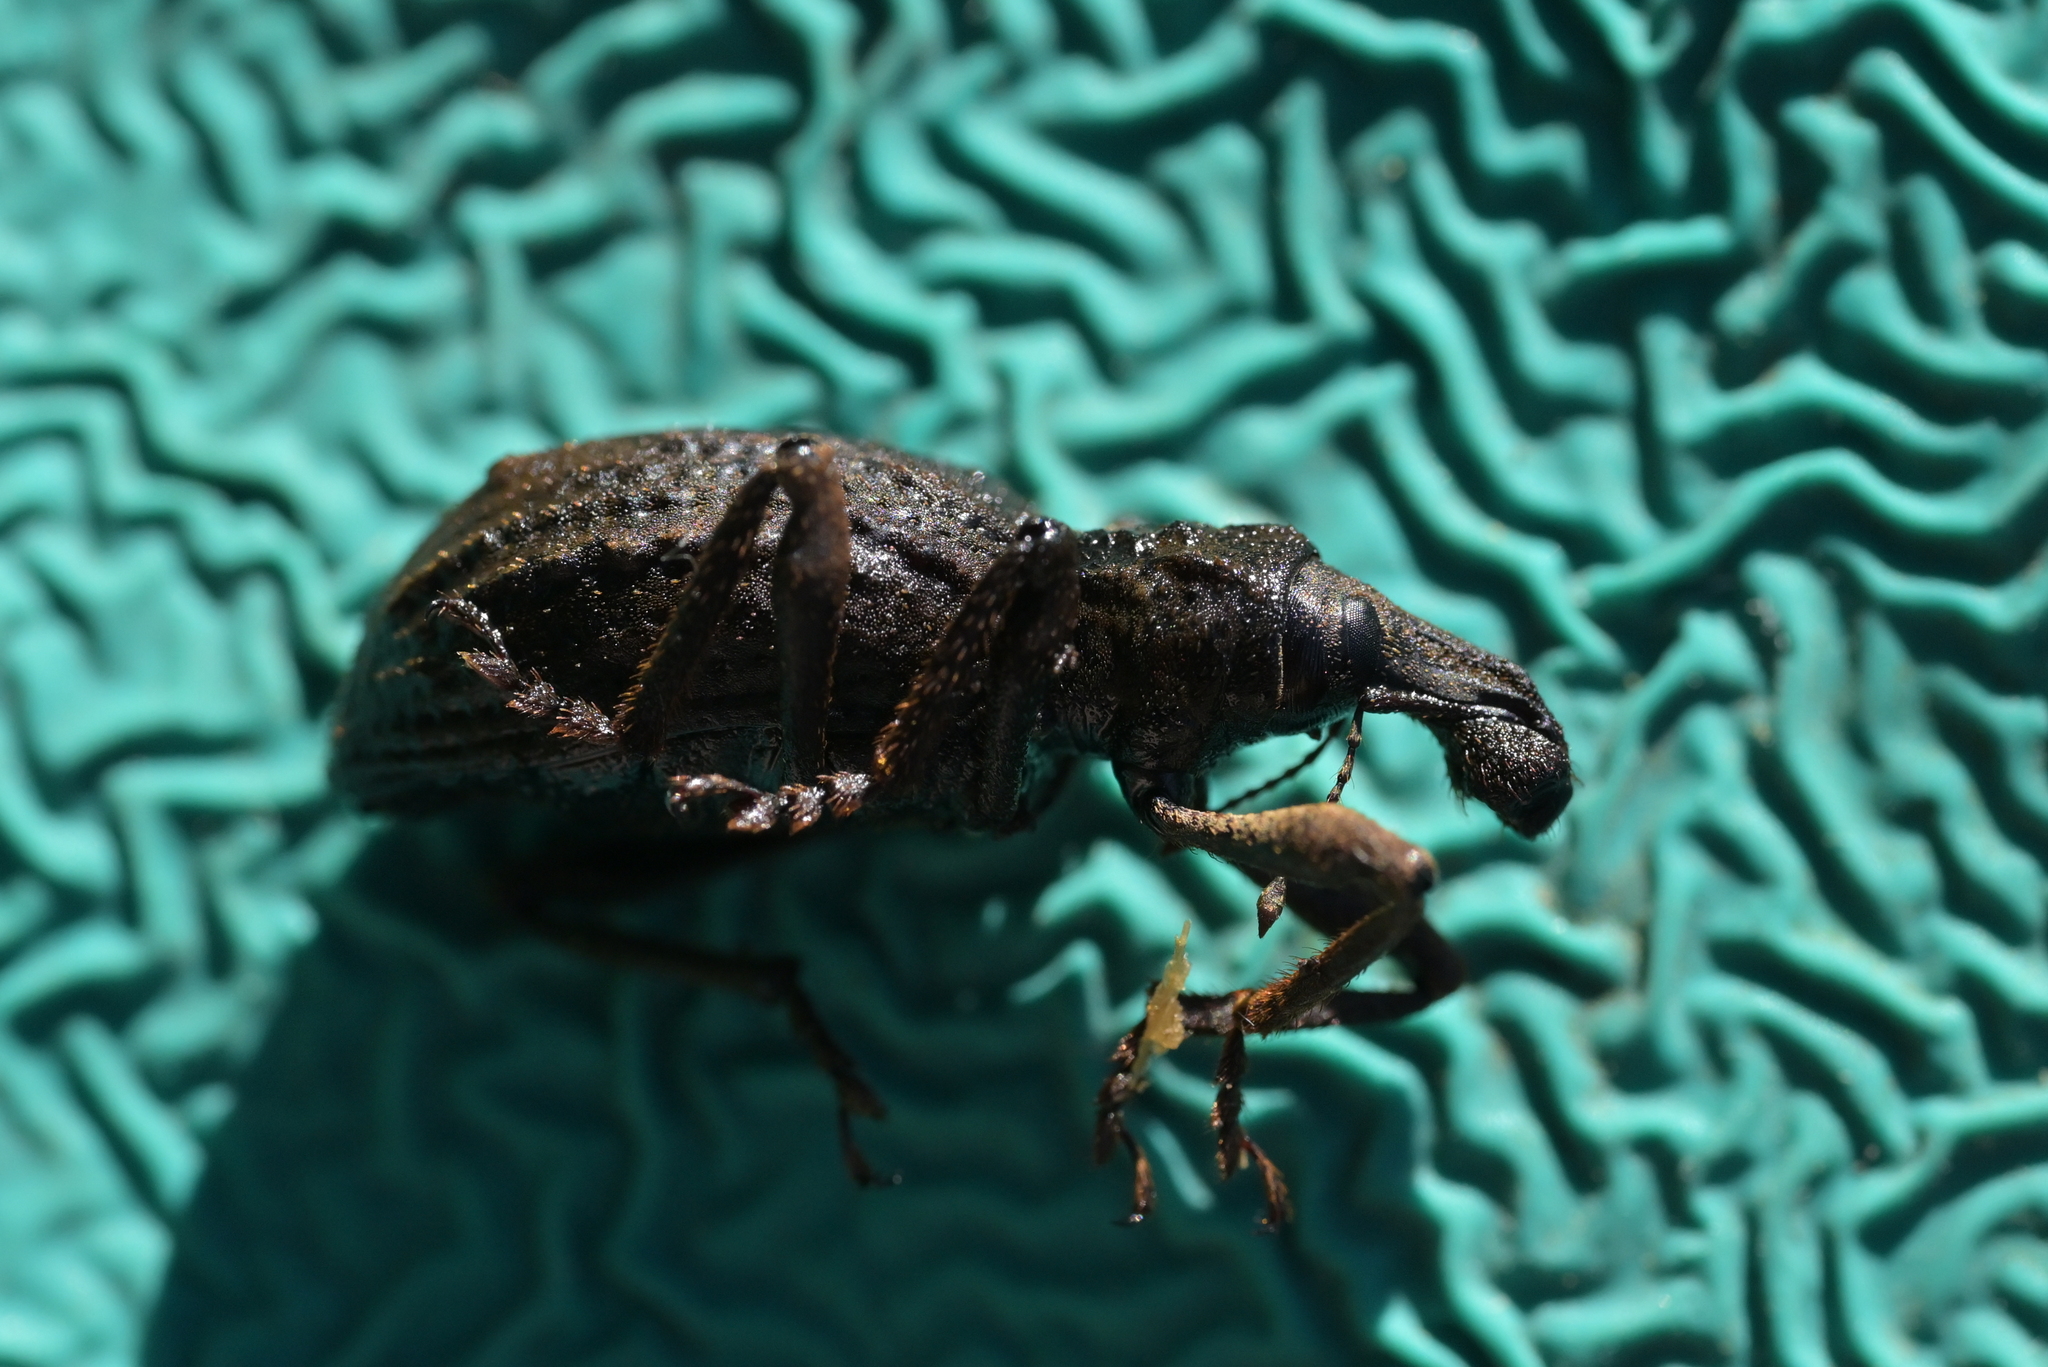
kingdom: Animalia
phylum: Arthropoda
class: Insecta
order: Coleoptera
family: Curculionidae
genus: Anagotus
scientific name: Anagotus fairburni
